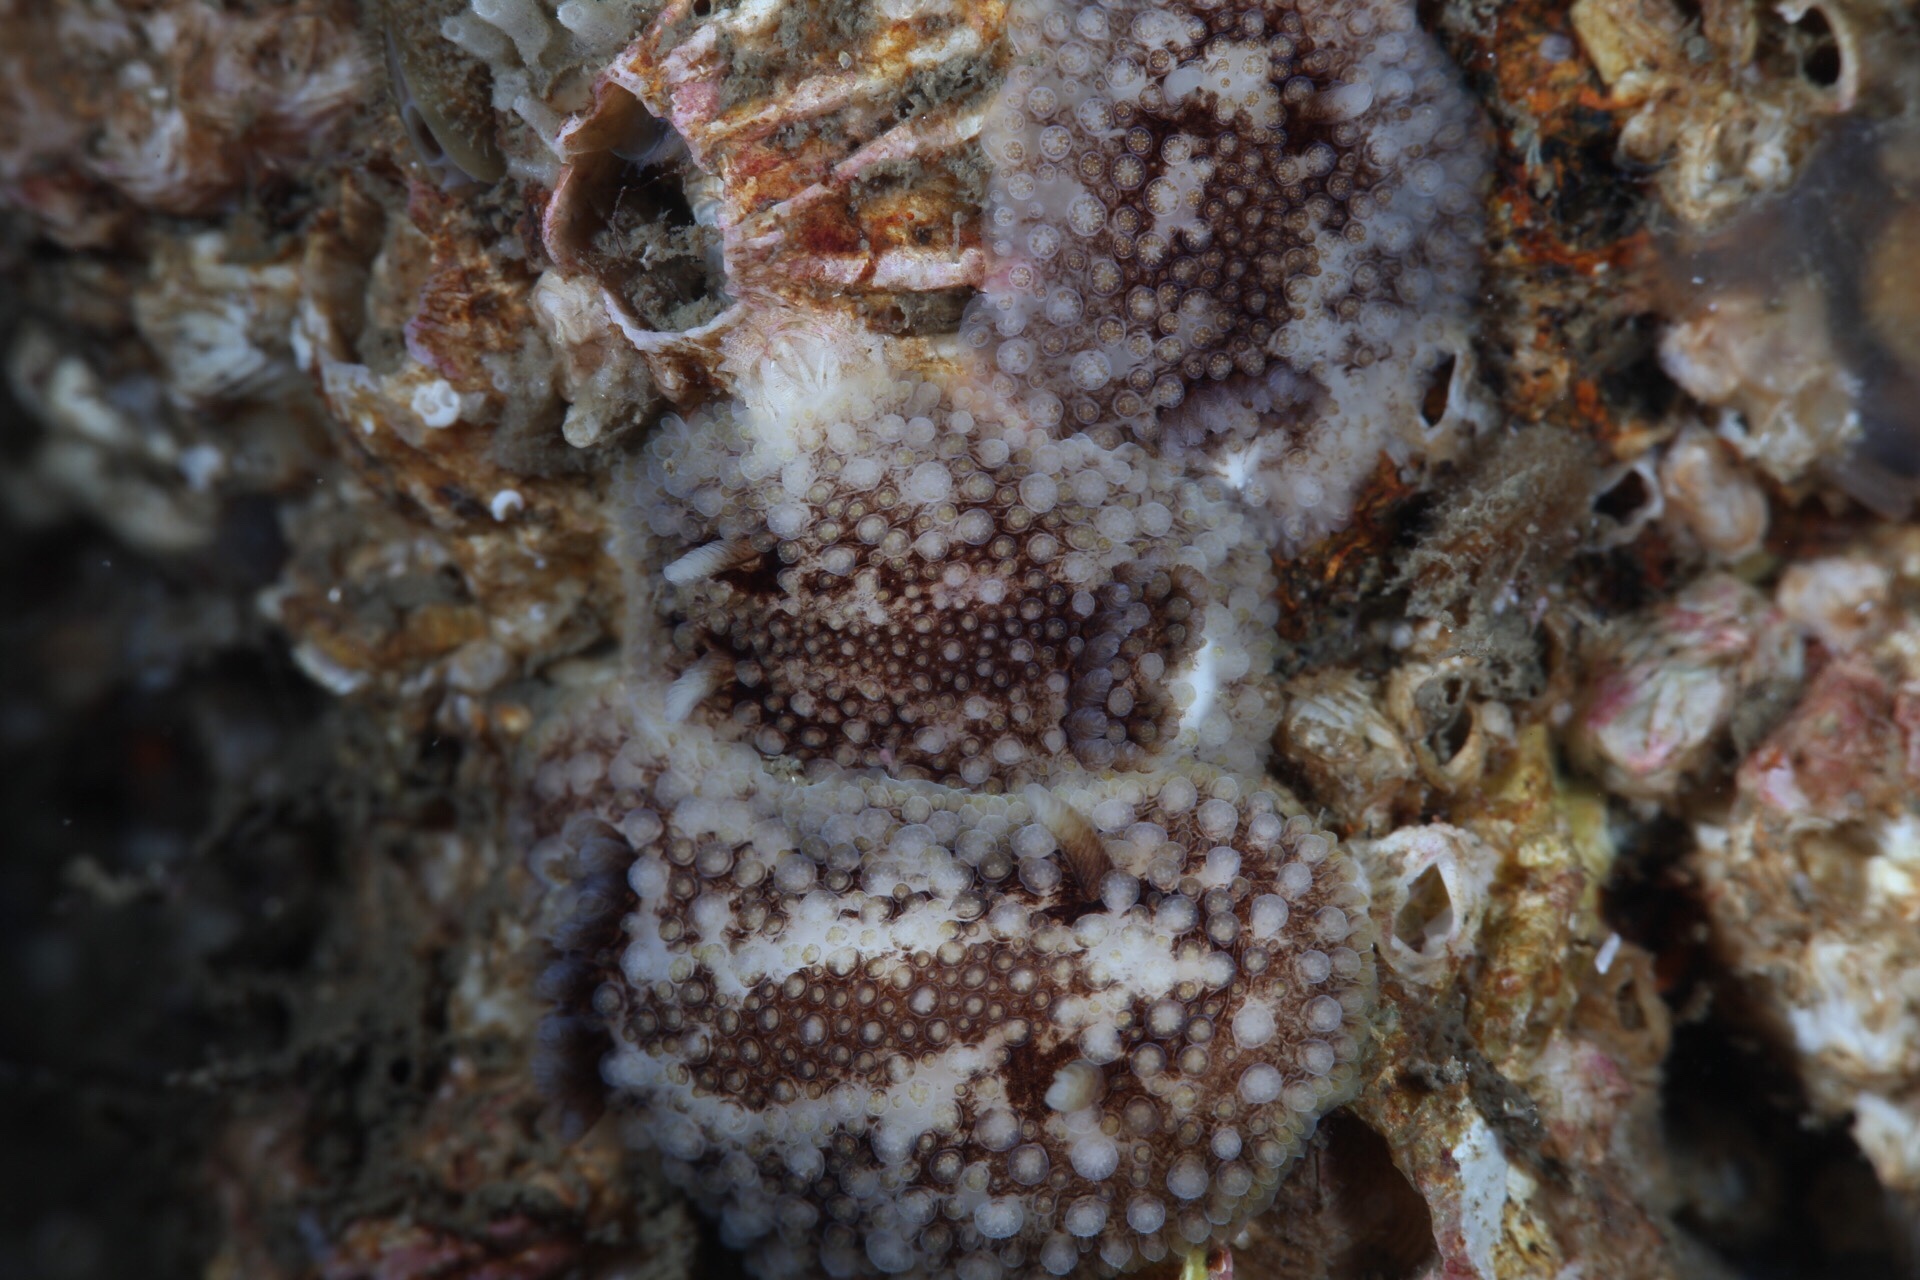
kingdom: Animalia
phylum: Mollusca
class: Gastropoda
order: Nudibranchia
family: Onchidorididae
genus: Onchidoris
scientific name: Onchidoris bilamellata
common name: Barnacle-eating onchidoris
